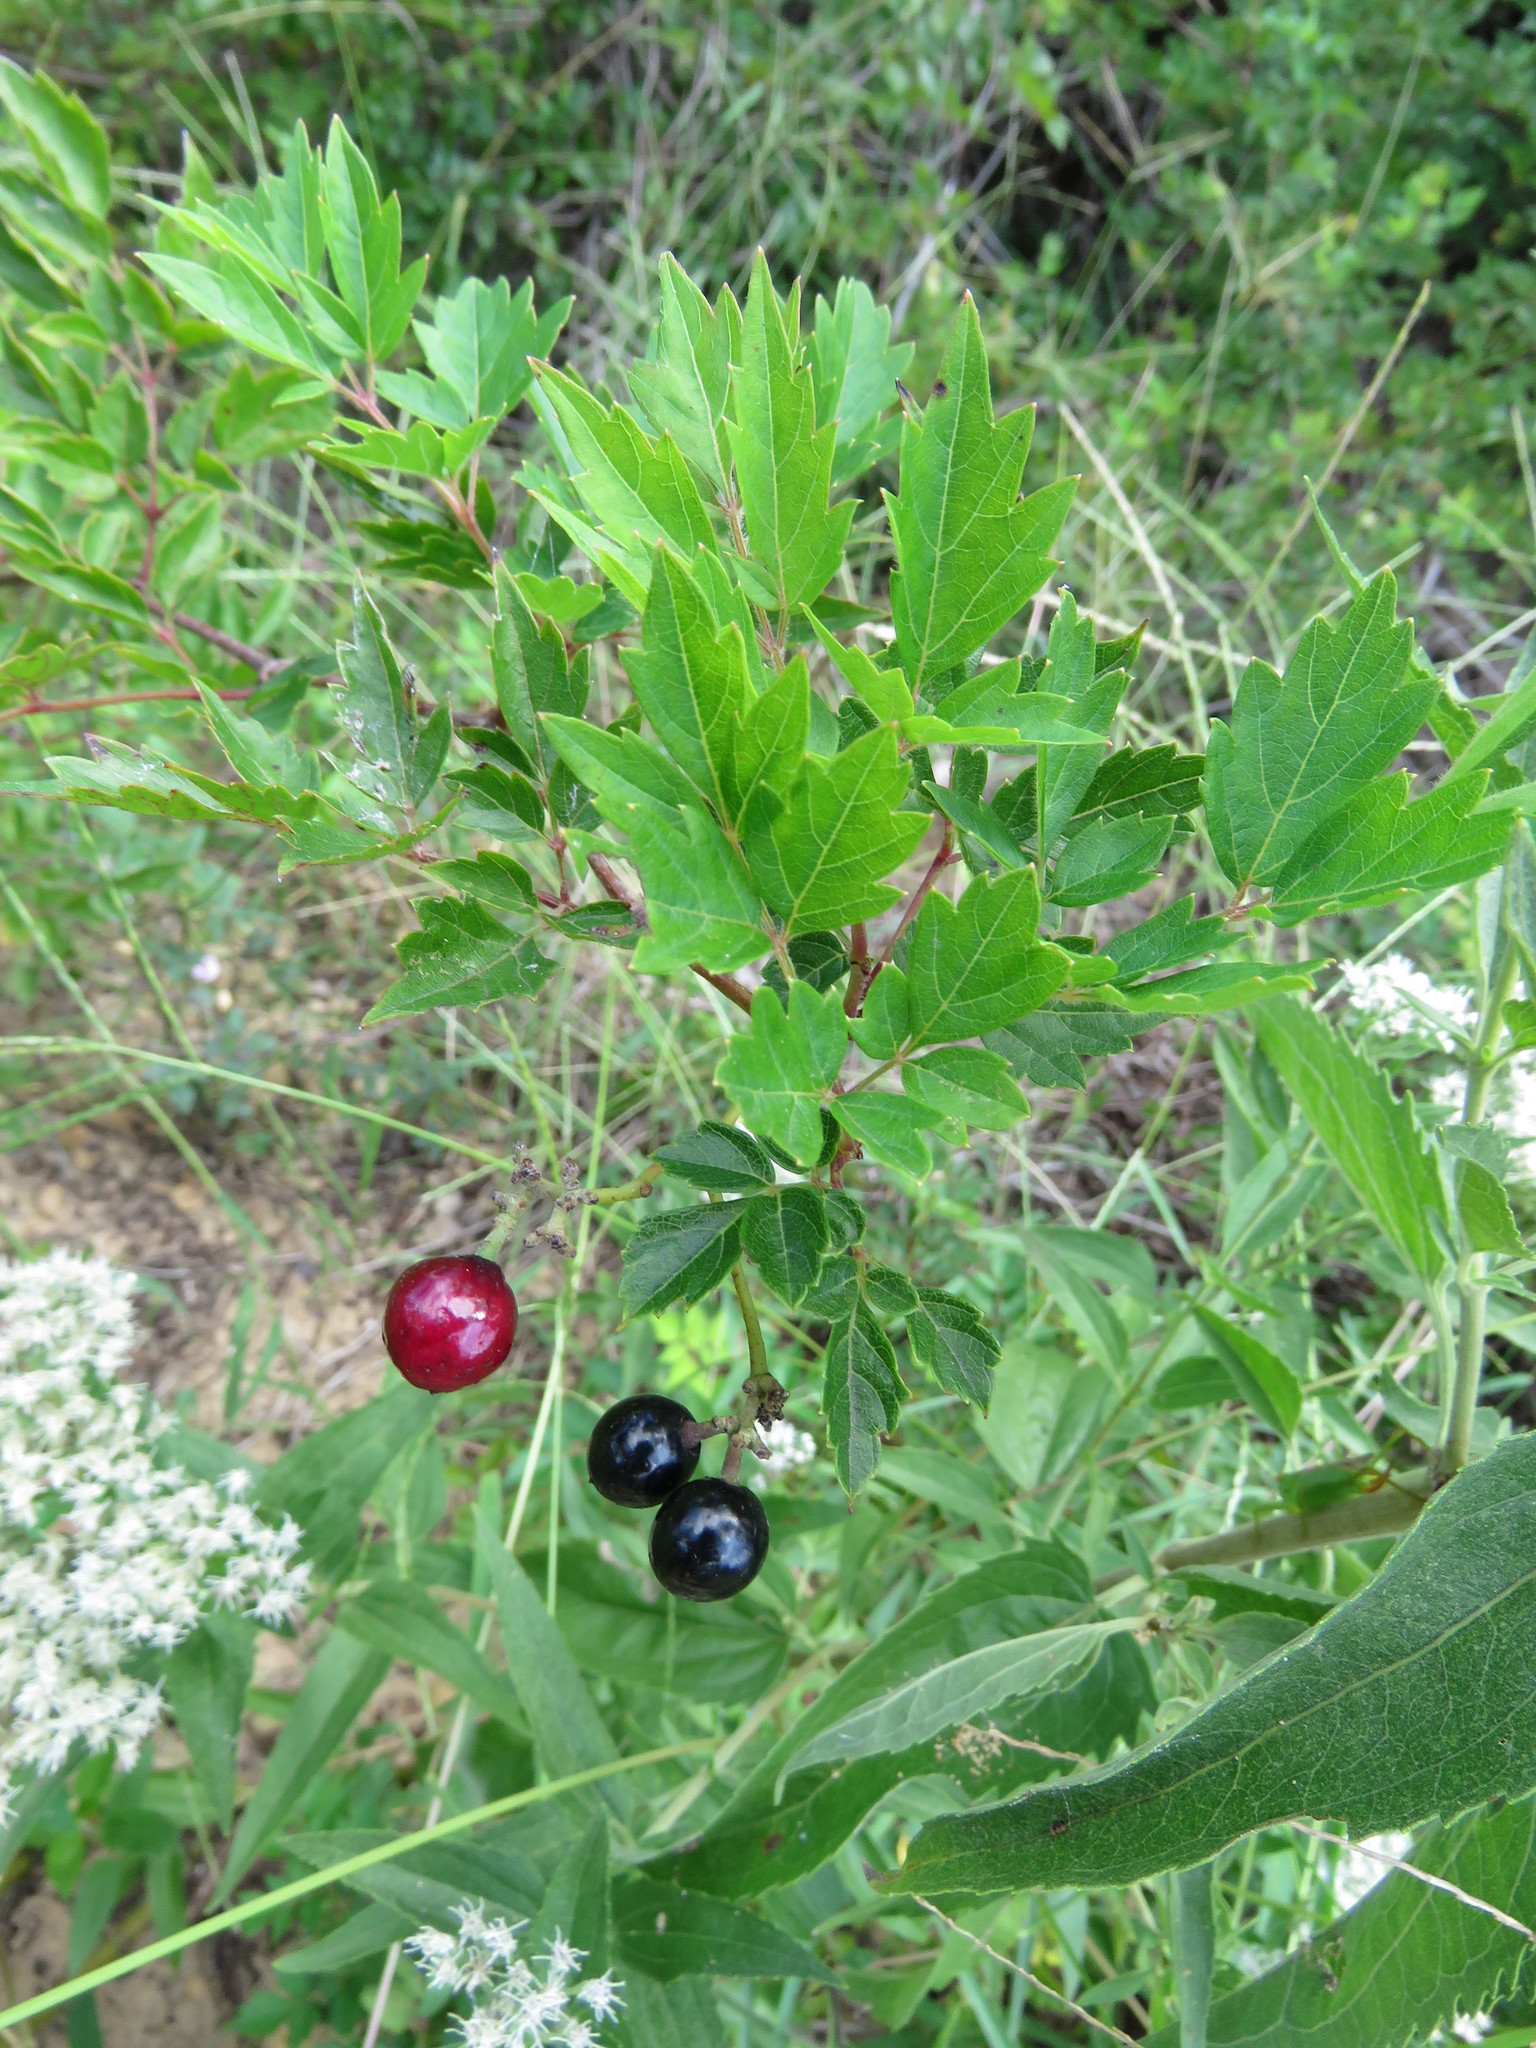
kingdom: Plantae
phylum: Tracheophyta
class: Magnoliopsida
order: Vitales
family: Vitaceae
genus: Nekemias
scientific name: Nekemias arborea
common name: Peppervine
